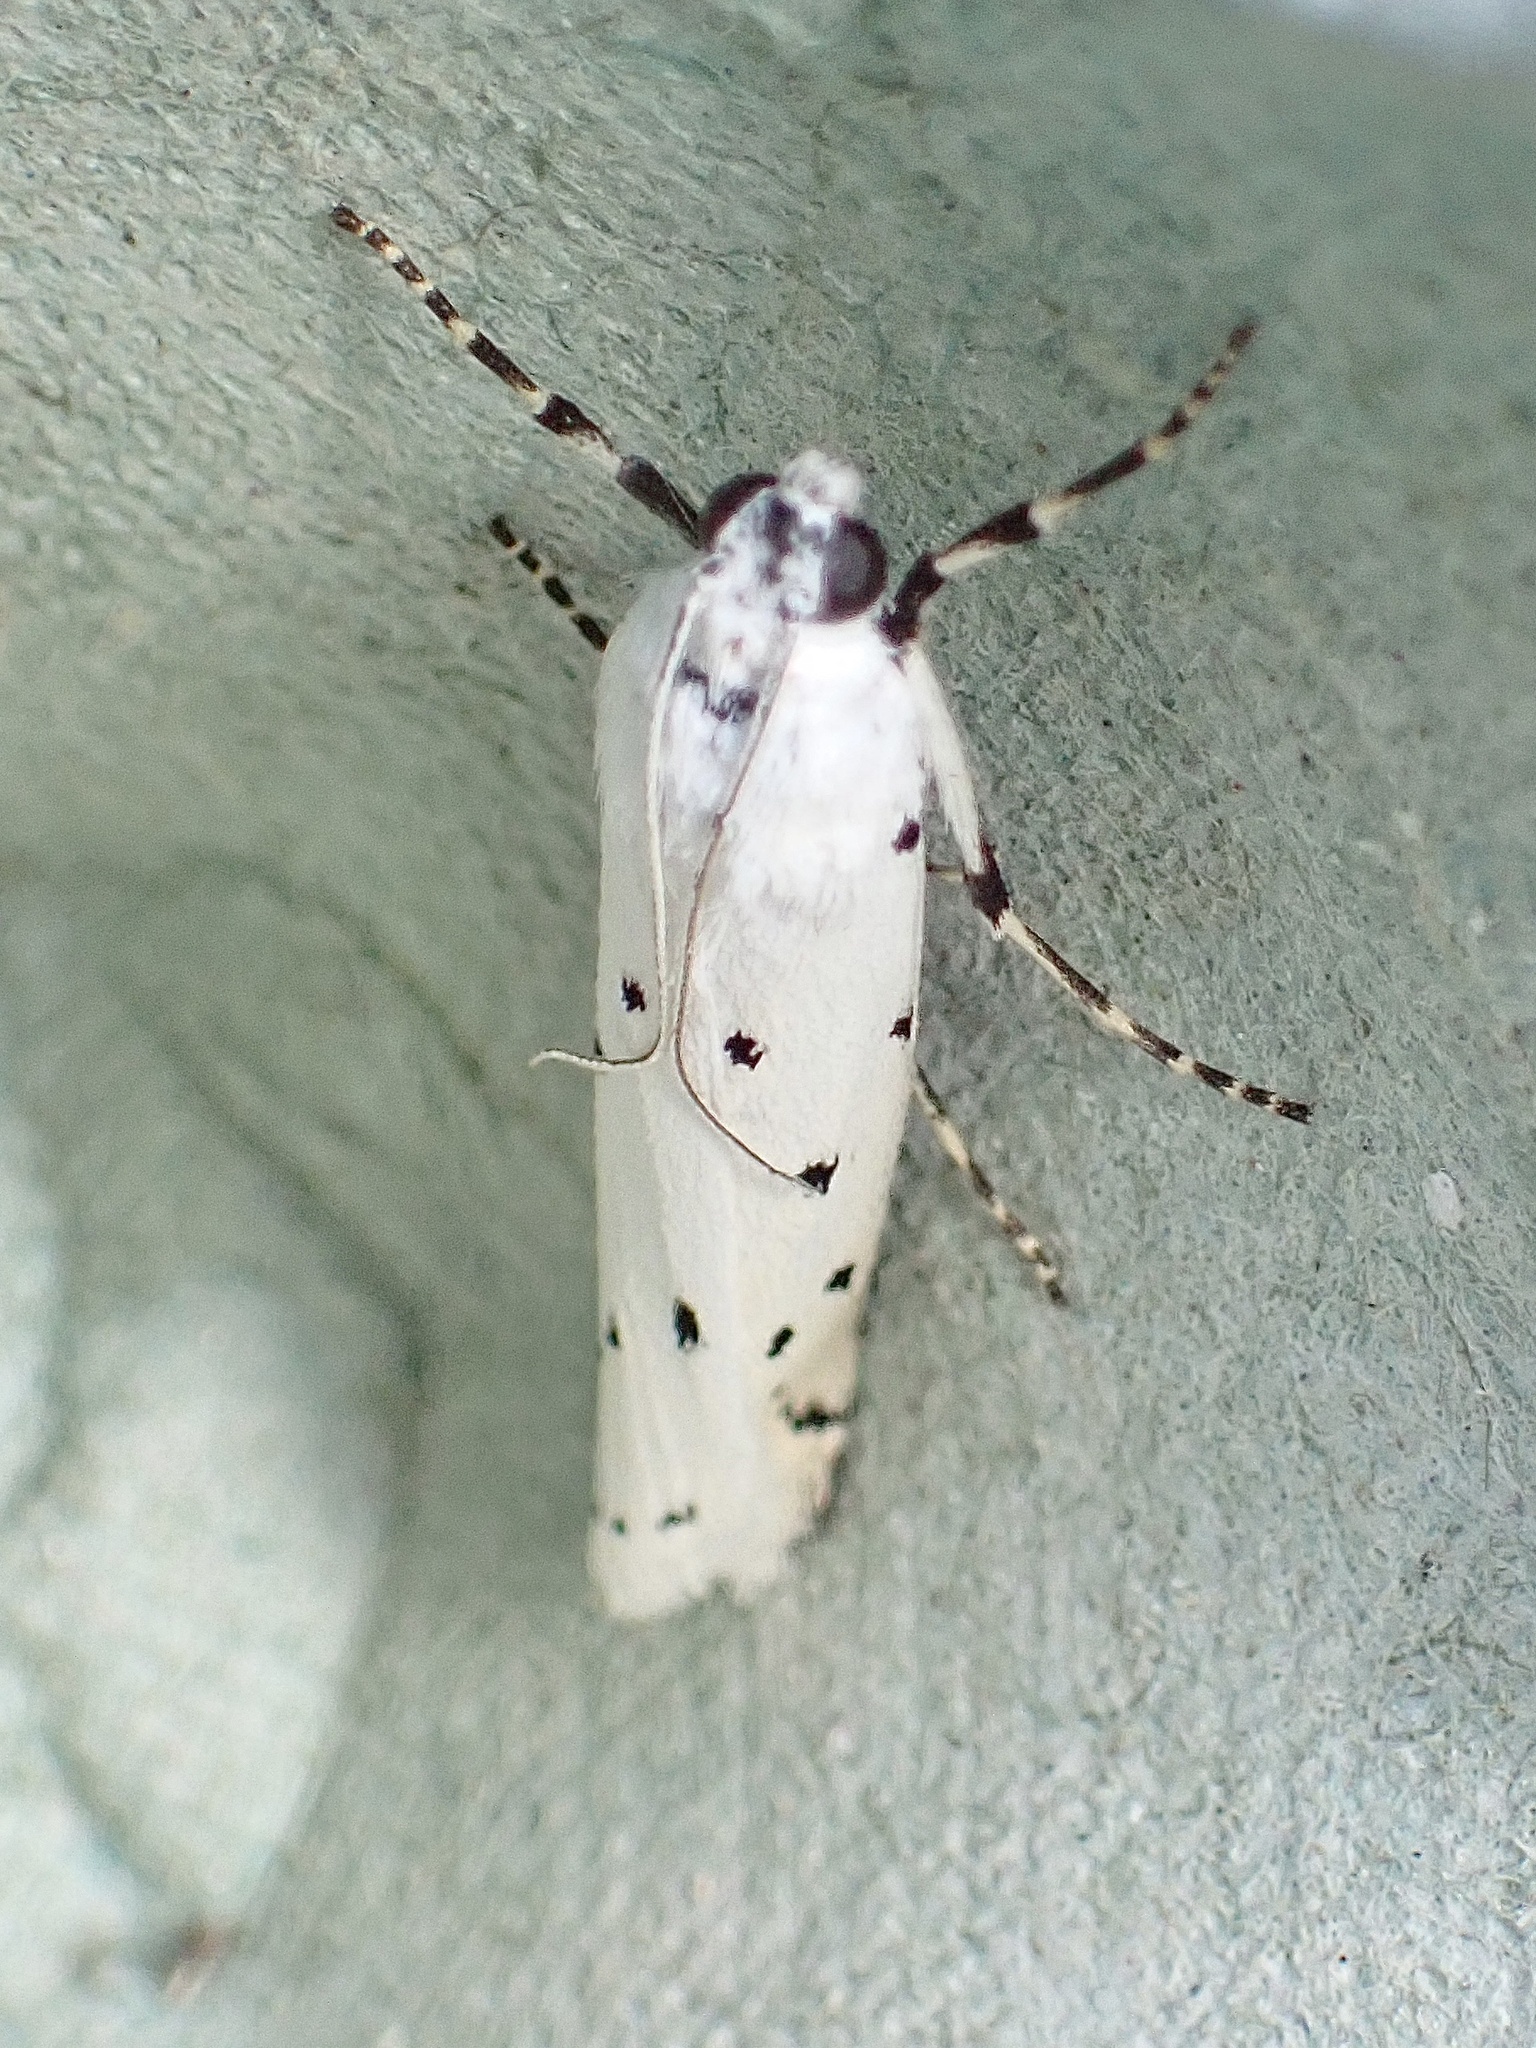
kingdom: Animalia
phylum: Arthropoda
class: Insecta
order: Lepidoptera
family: Pyralidae
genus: Myelois
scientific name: Myelois circumvoluta
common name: Thistle ermine
